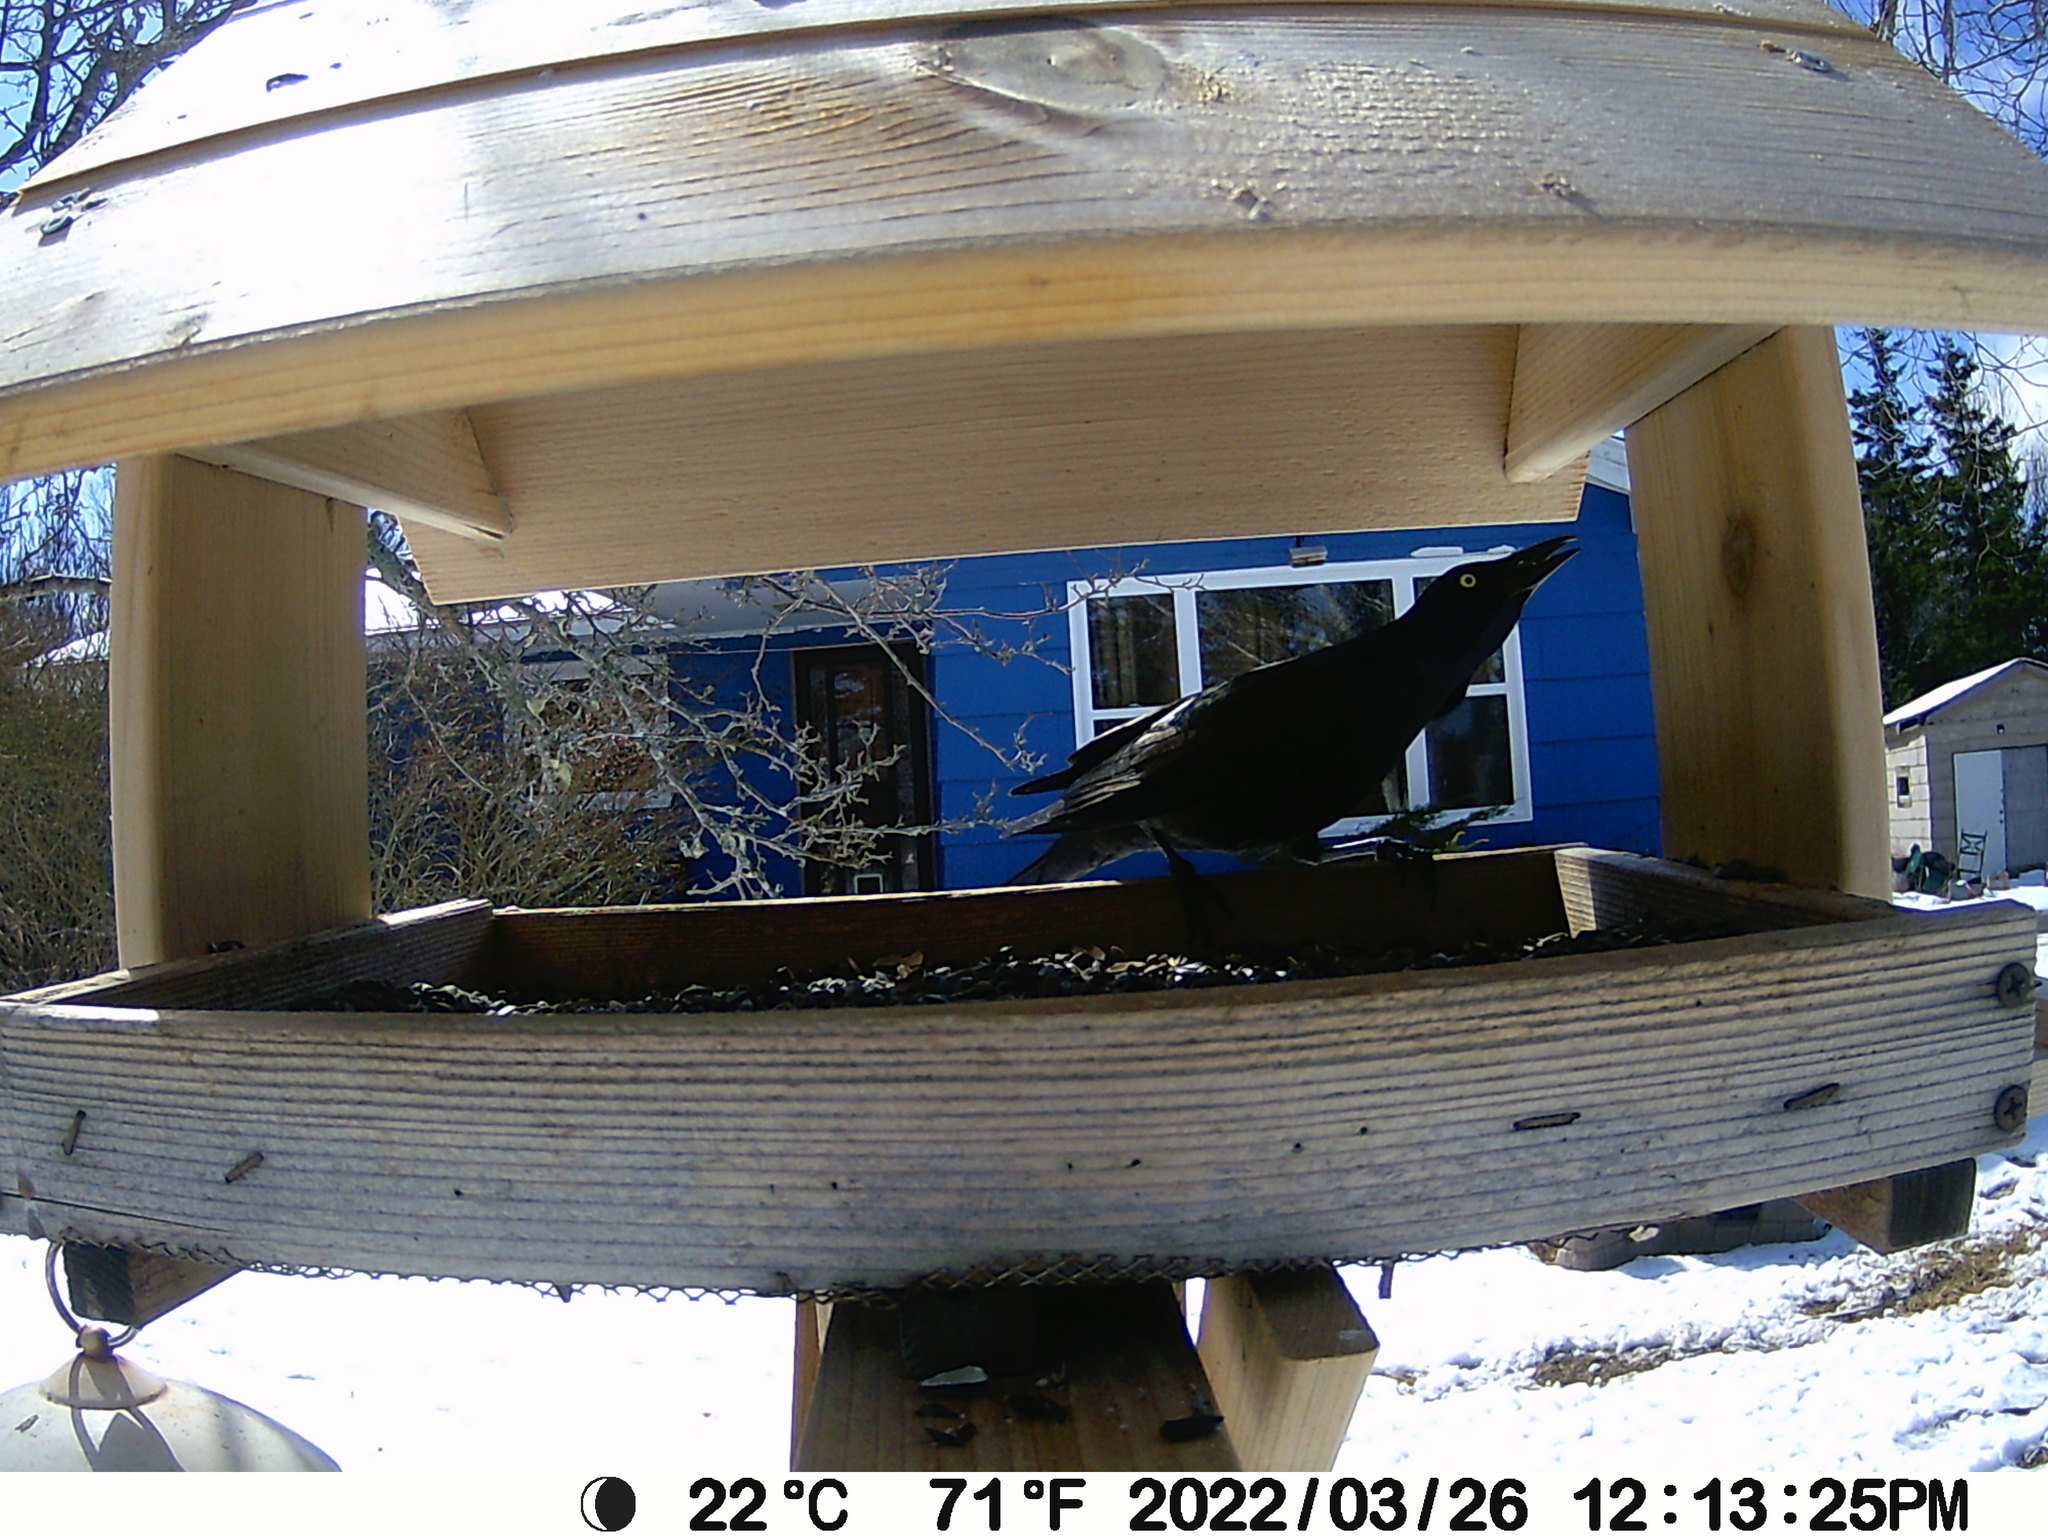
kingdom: Animalia
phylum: Chordata
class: Aves
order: Passeriformes
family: Icteridae
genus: Quiscalus
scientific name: Quiscalus quiscula
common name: Common grackle
